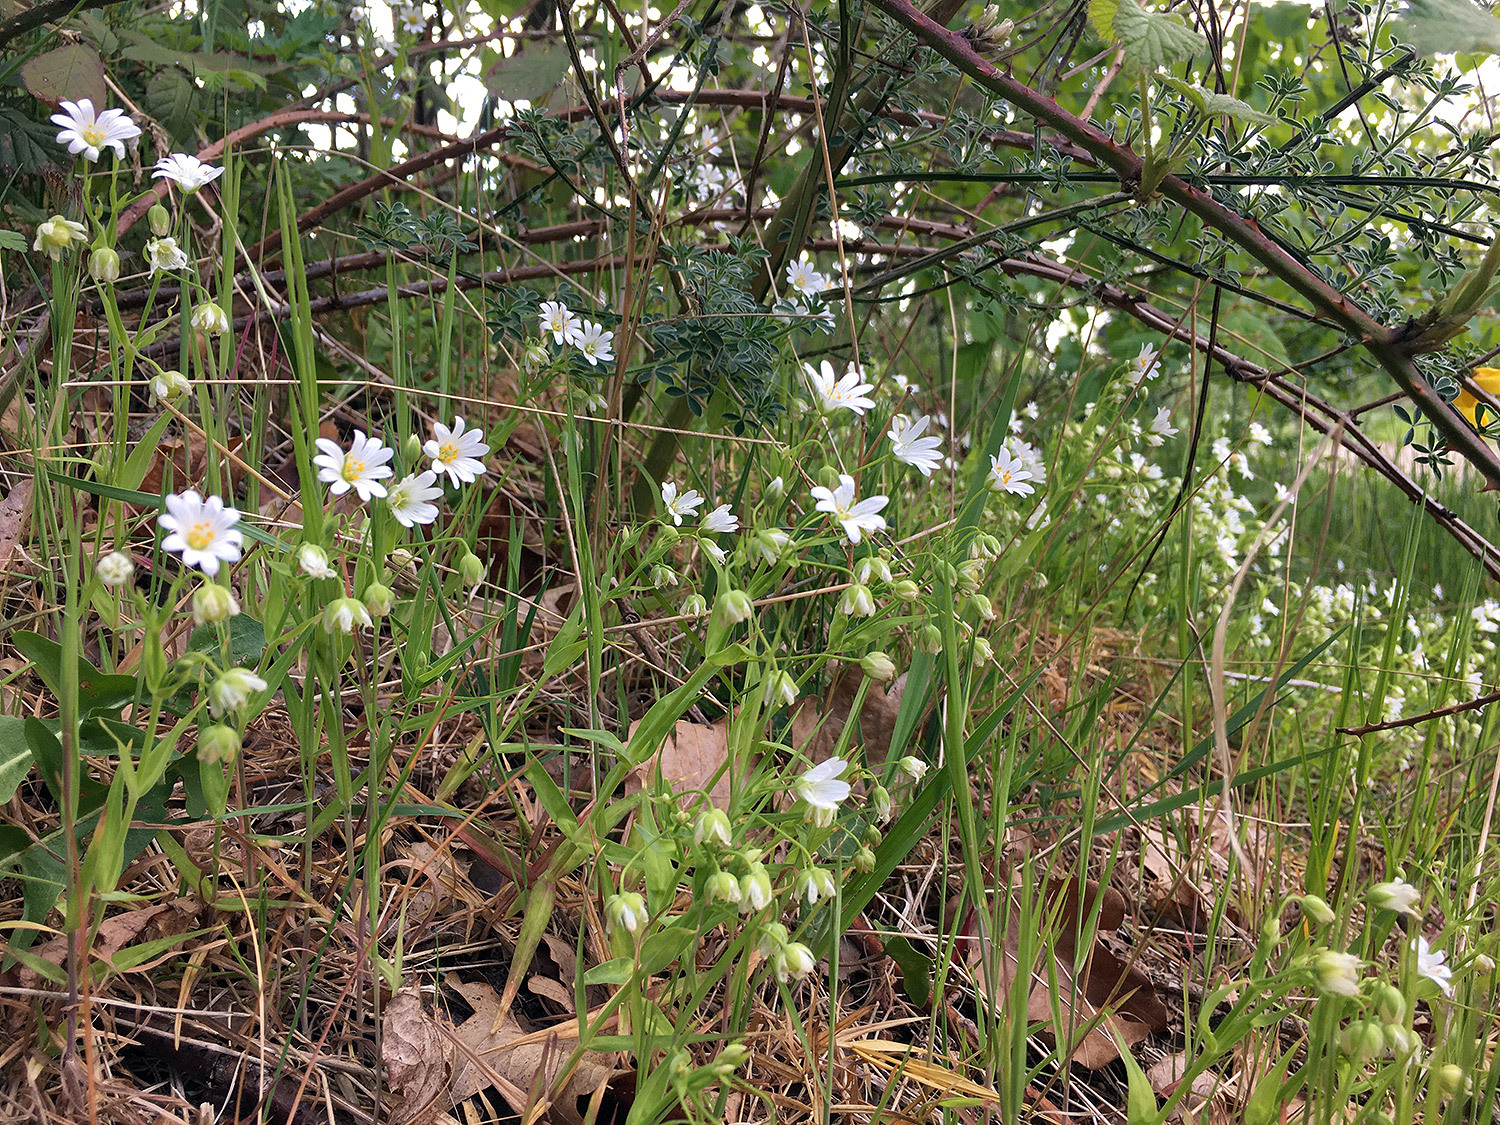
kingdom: Plantae
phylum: Tracheophyta
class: Magnoliopsida
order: Caryophyllales
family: Caryophyllaceae
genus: Rabelera
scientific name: Rabelera holostea
